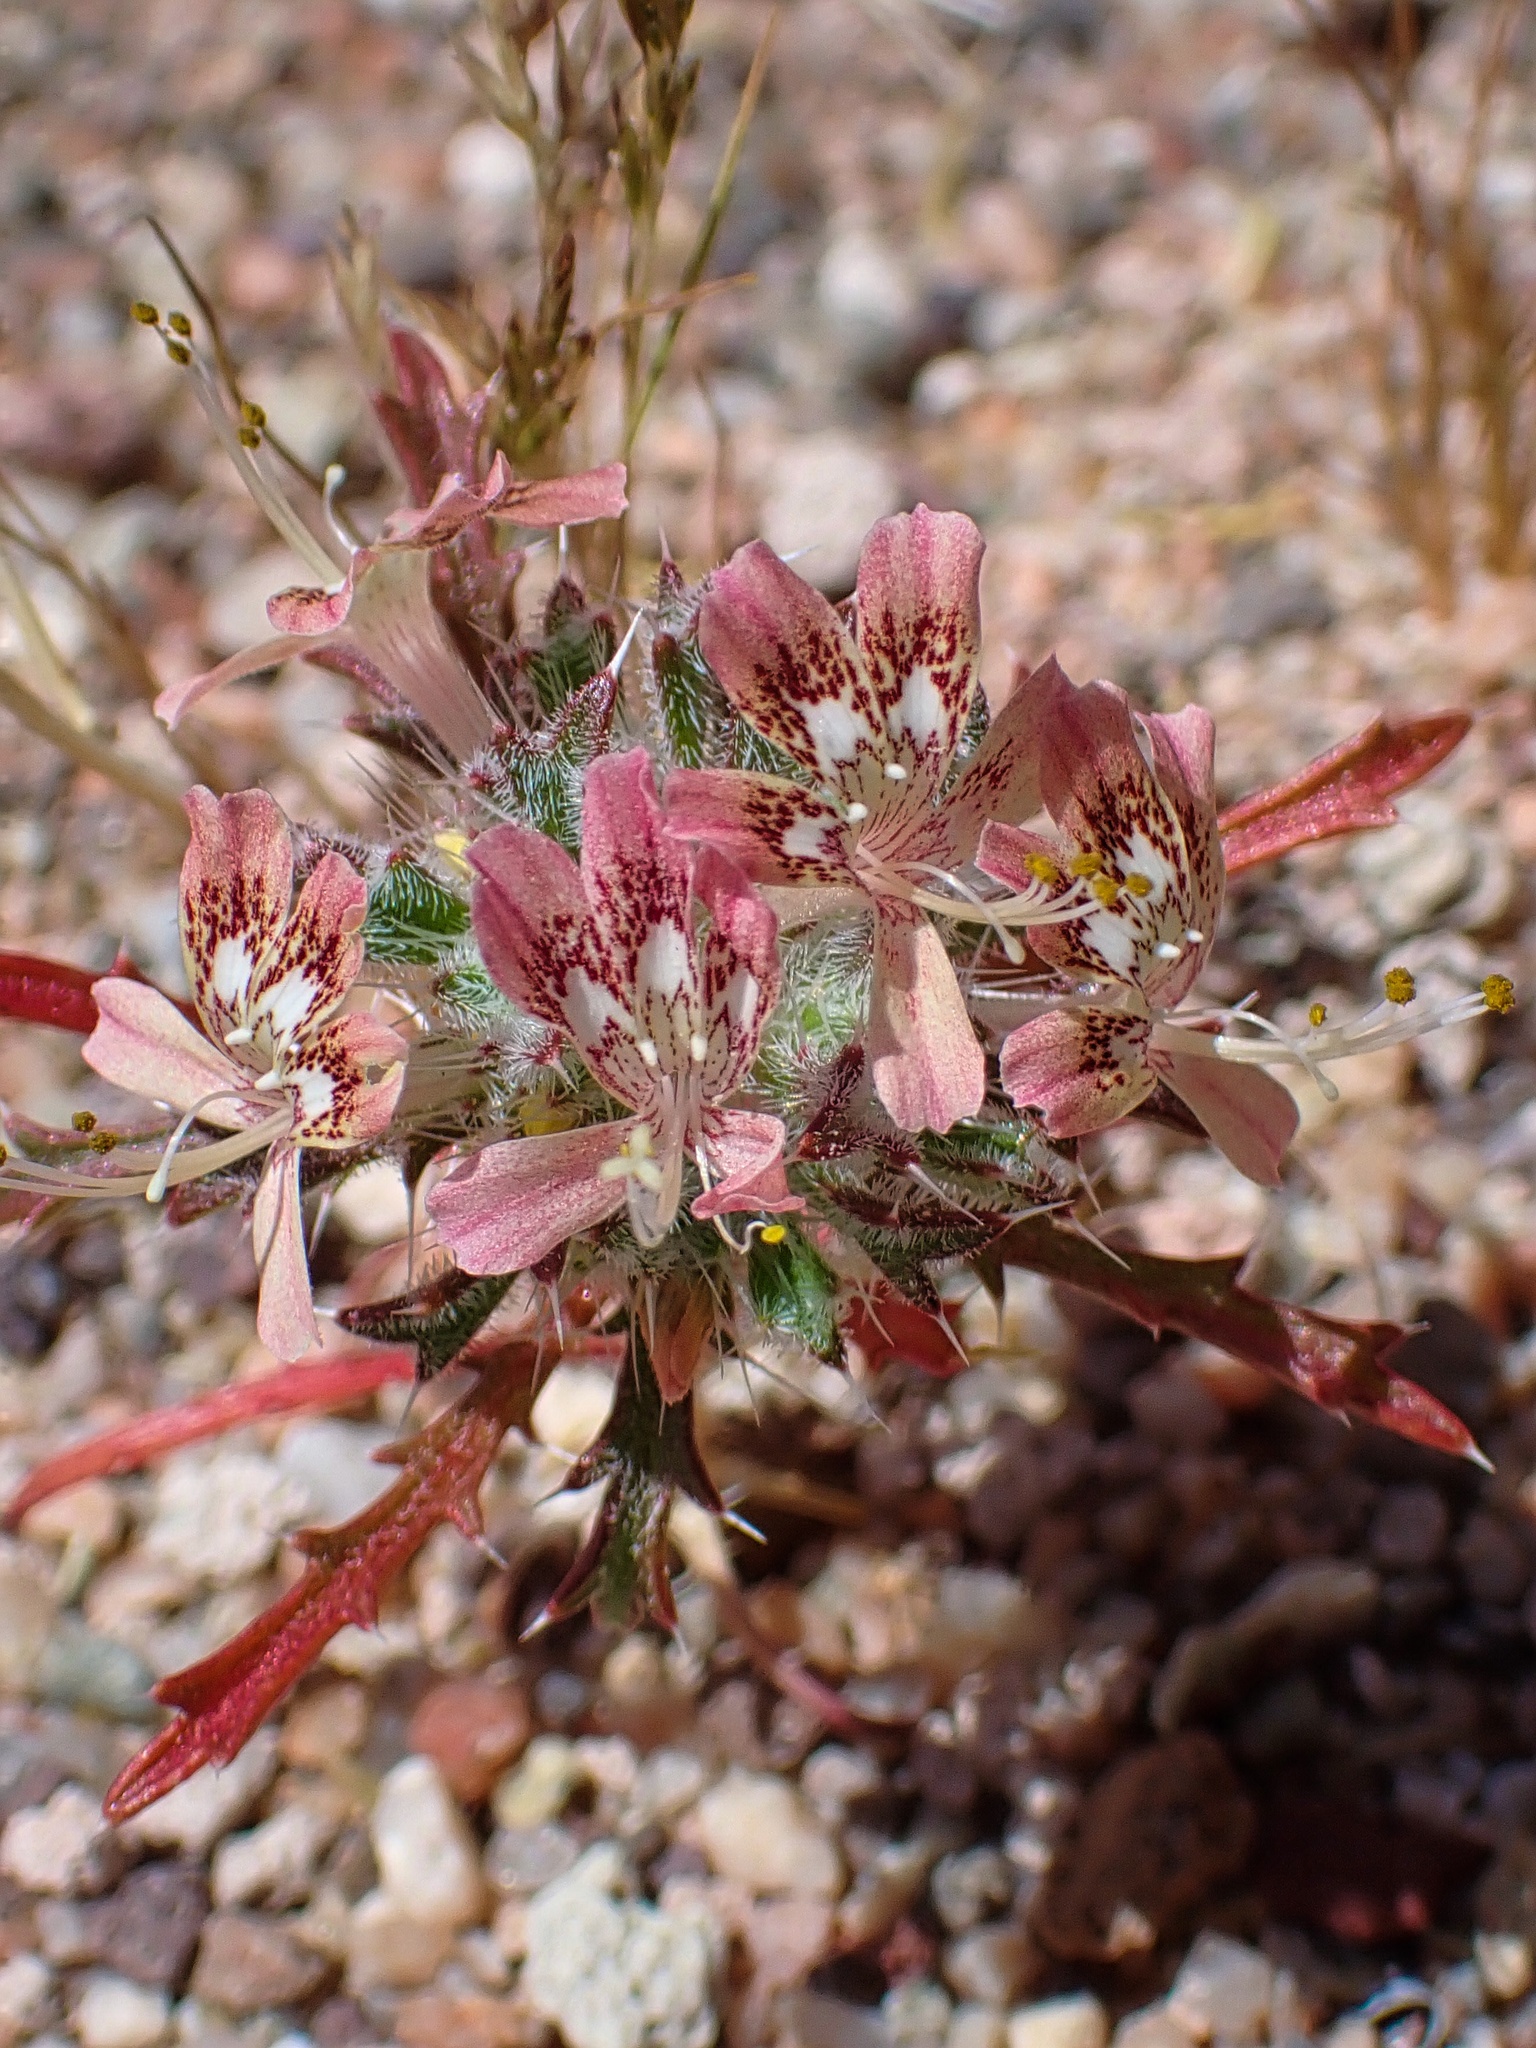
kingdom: Plantae
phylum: Tracheophyta
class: Magnoliopsida
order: Ericales
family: Polemoniaceae
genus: Loeseliastrum
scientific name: Loeseliastrum matthewsii
